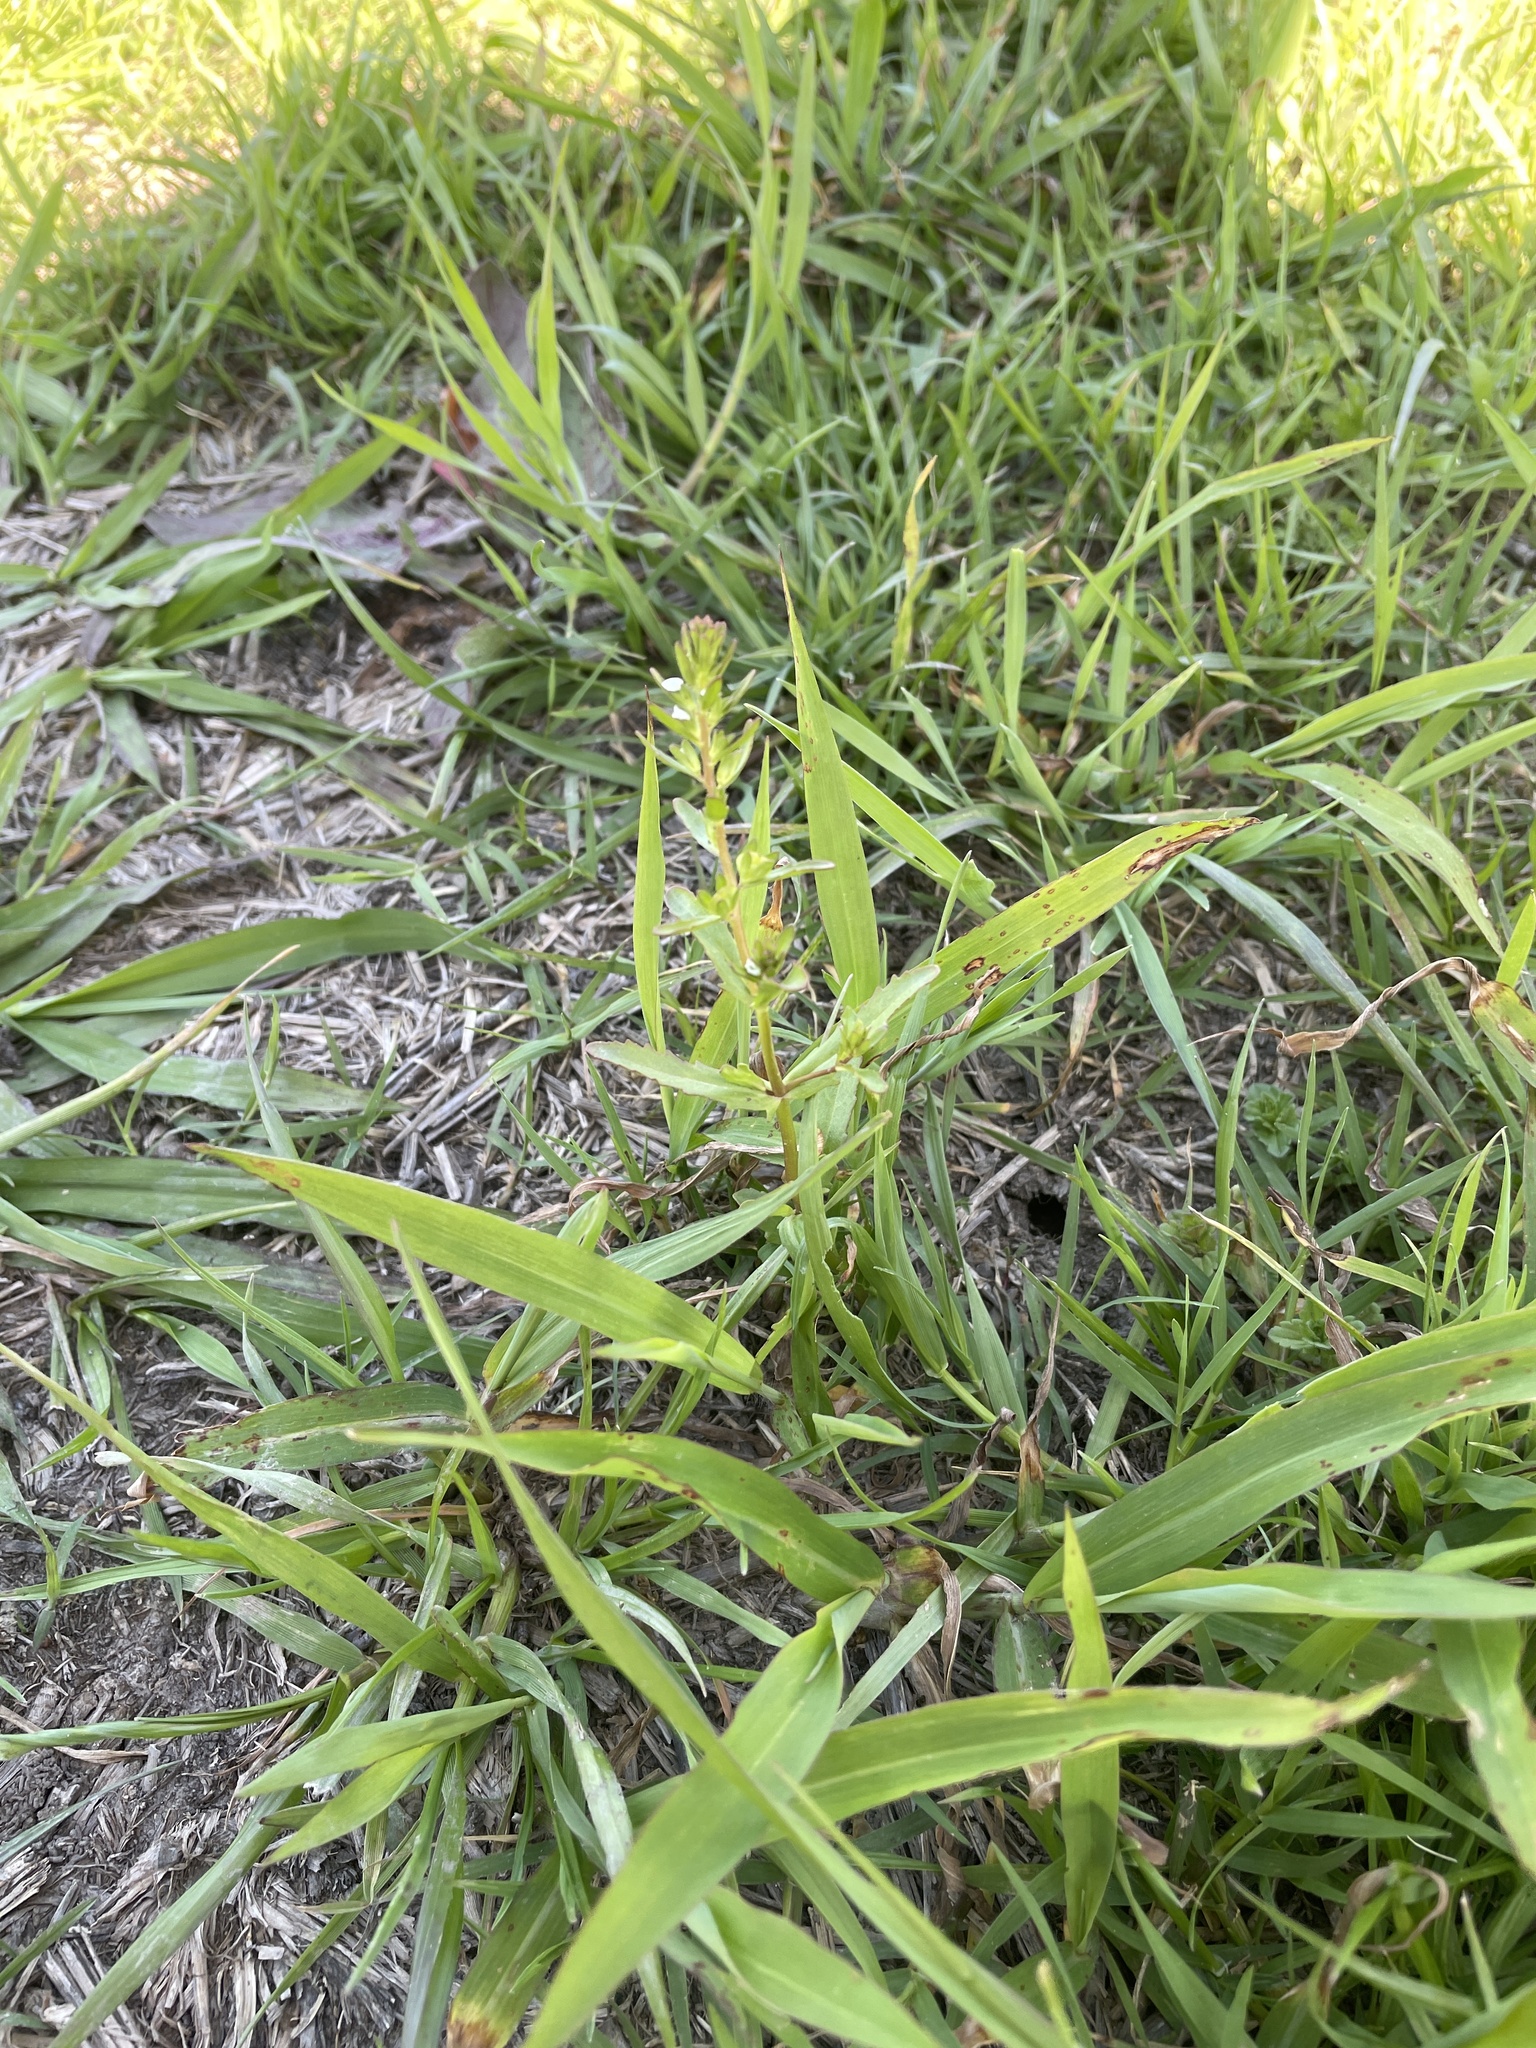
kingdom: Plantae
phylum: Tracheophyta
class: Magnoliopsida
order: Lamiales
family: Plantaginaceae
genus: Veronica
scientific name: Veronica peregrina
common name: Neckweed
